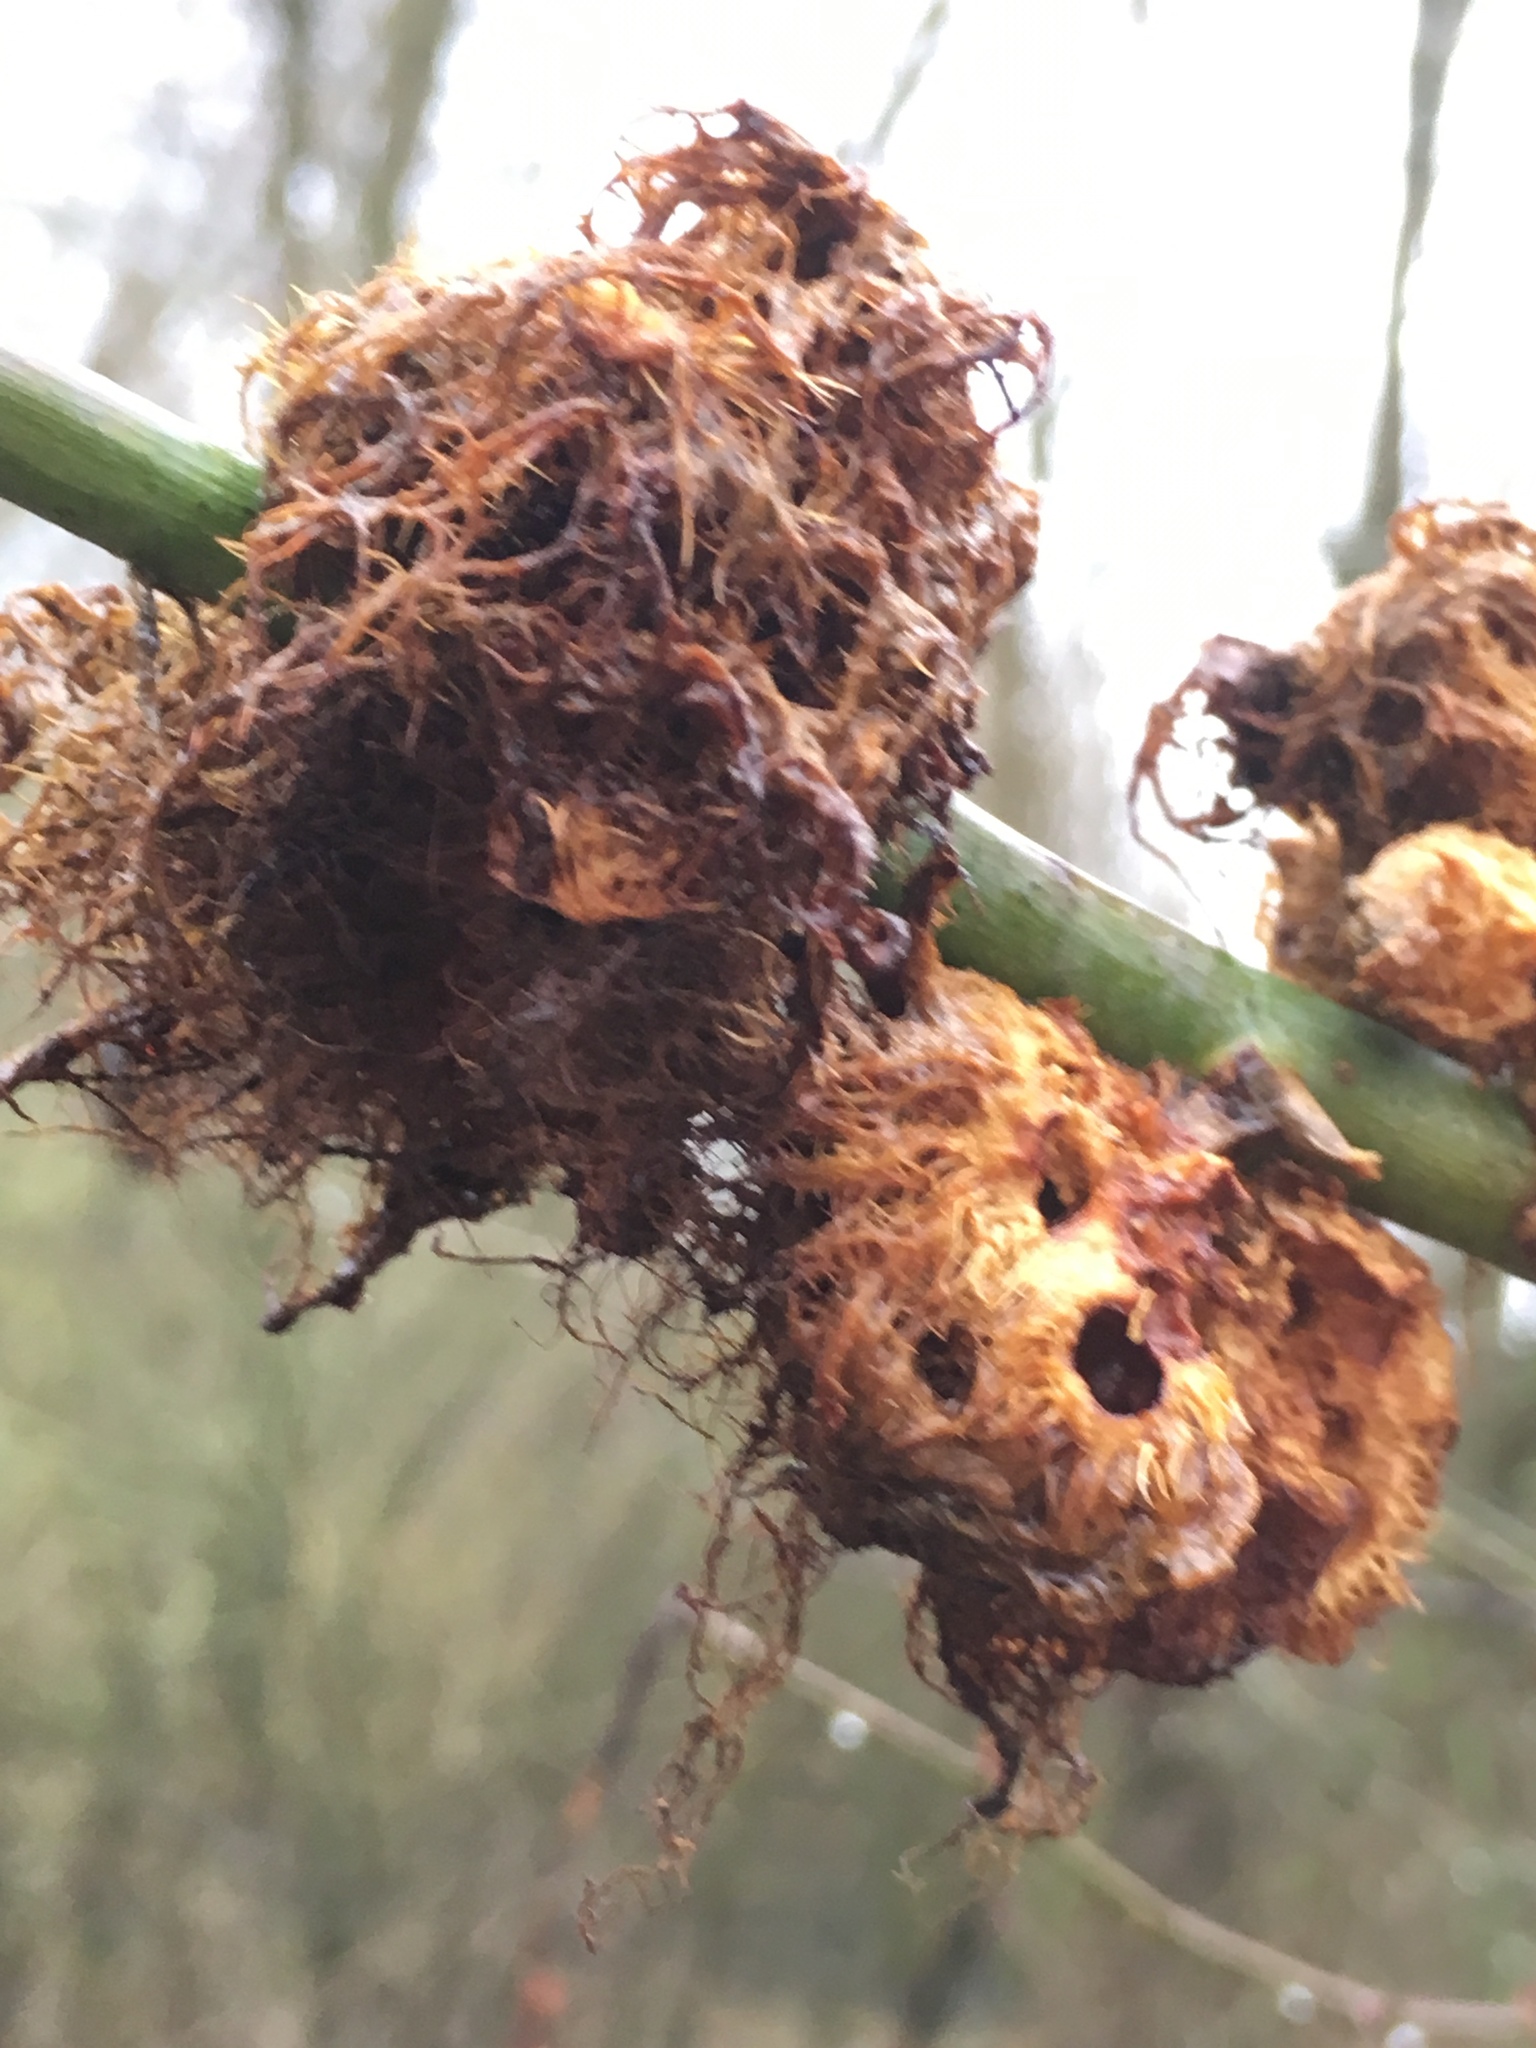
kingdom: Animalia
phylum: Arthropoda
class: Insecta
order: Hymenoptera
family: Cynipidae
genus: Diplolepis
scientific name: Diplolepis rosae
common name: Bedeguar gall
